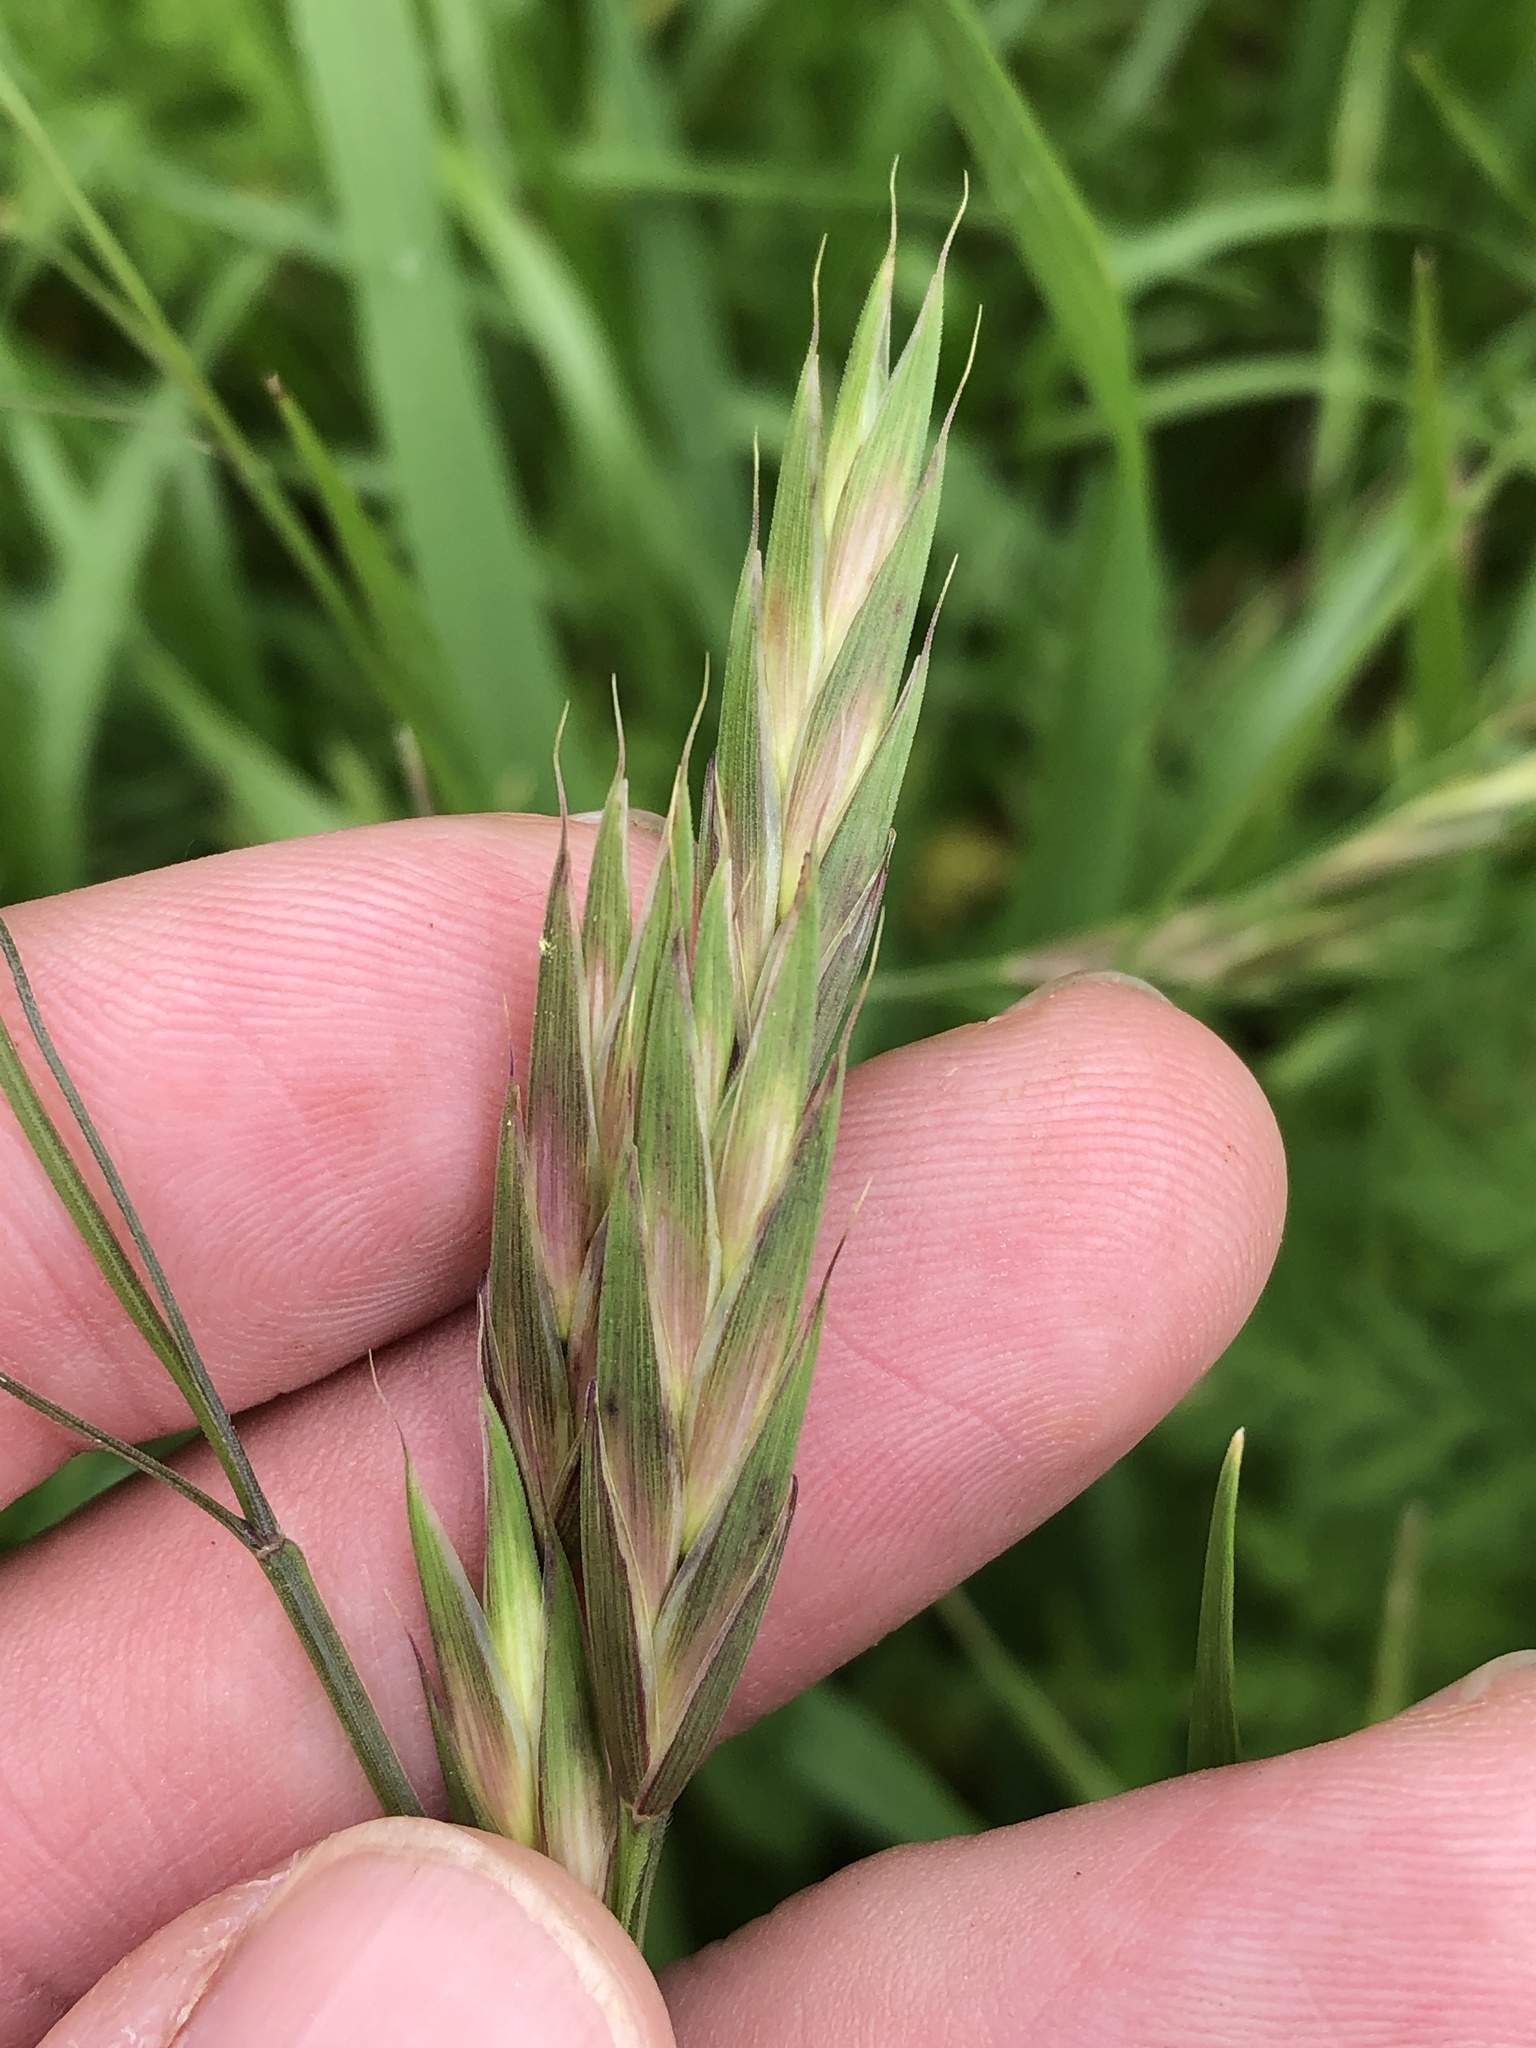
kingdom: Plantae
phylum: Tracheophyta
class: Liliopsida
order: Poales
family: Poaceae
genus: Bromus
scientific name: Bromus catharticus
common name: Rescuegrass
